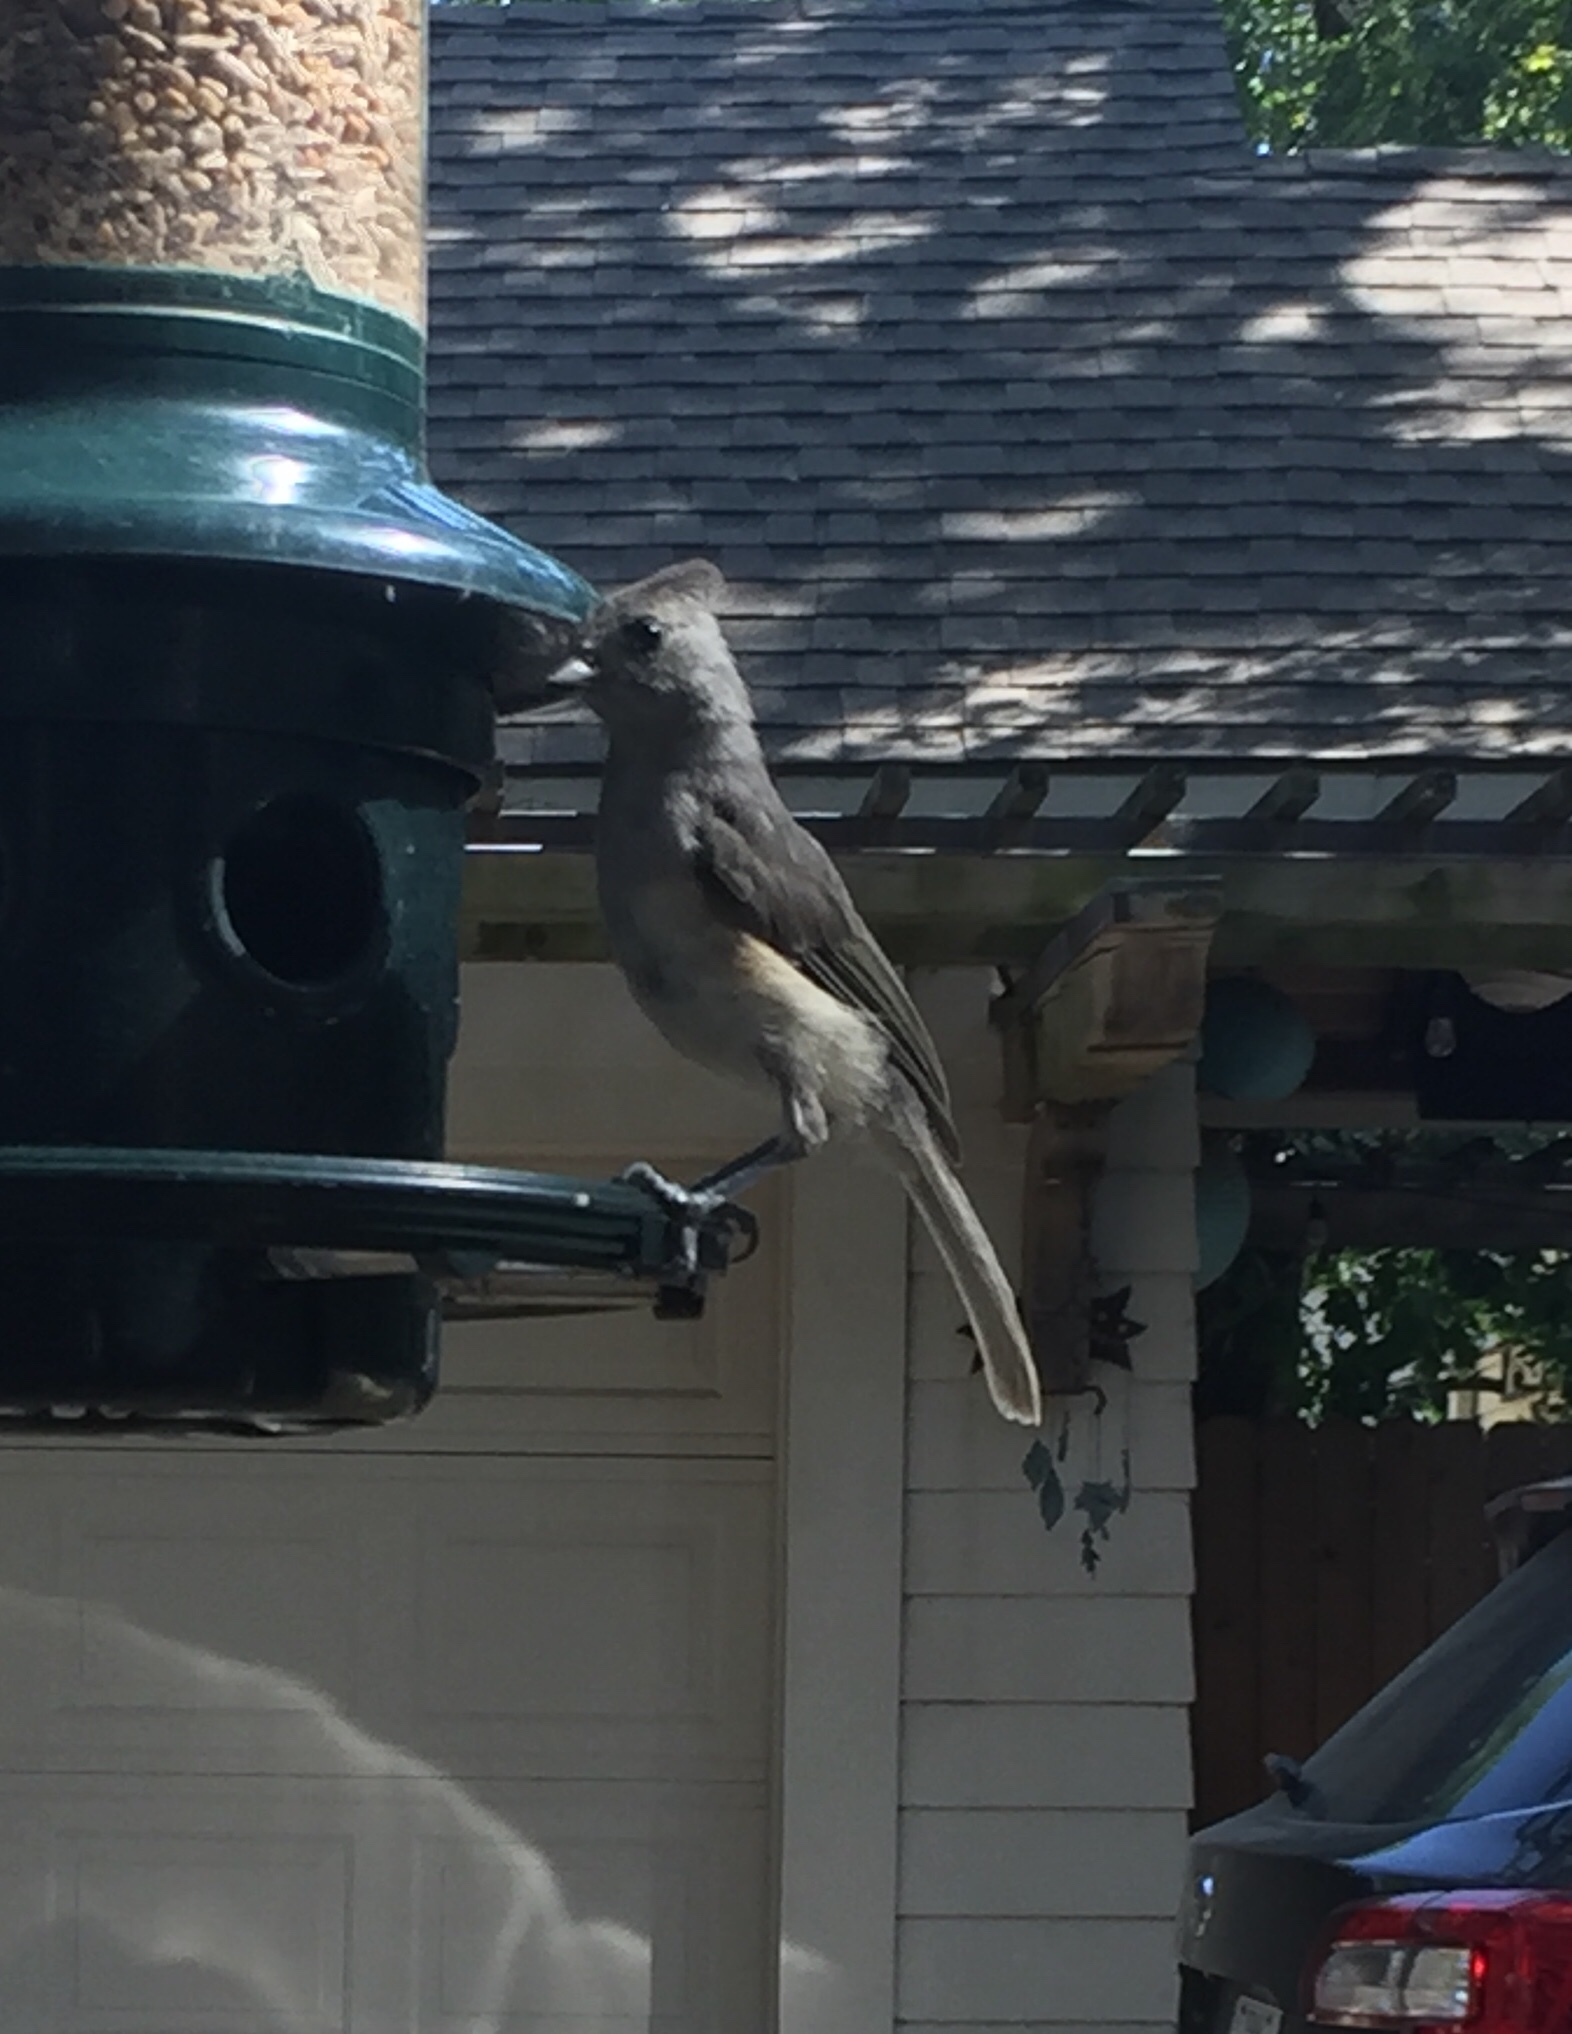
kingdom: Animalia
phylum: Chordata
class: Aves
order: Passeriformes
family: Paridae
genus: Baeolophus
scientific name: Baeolophus
